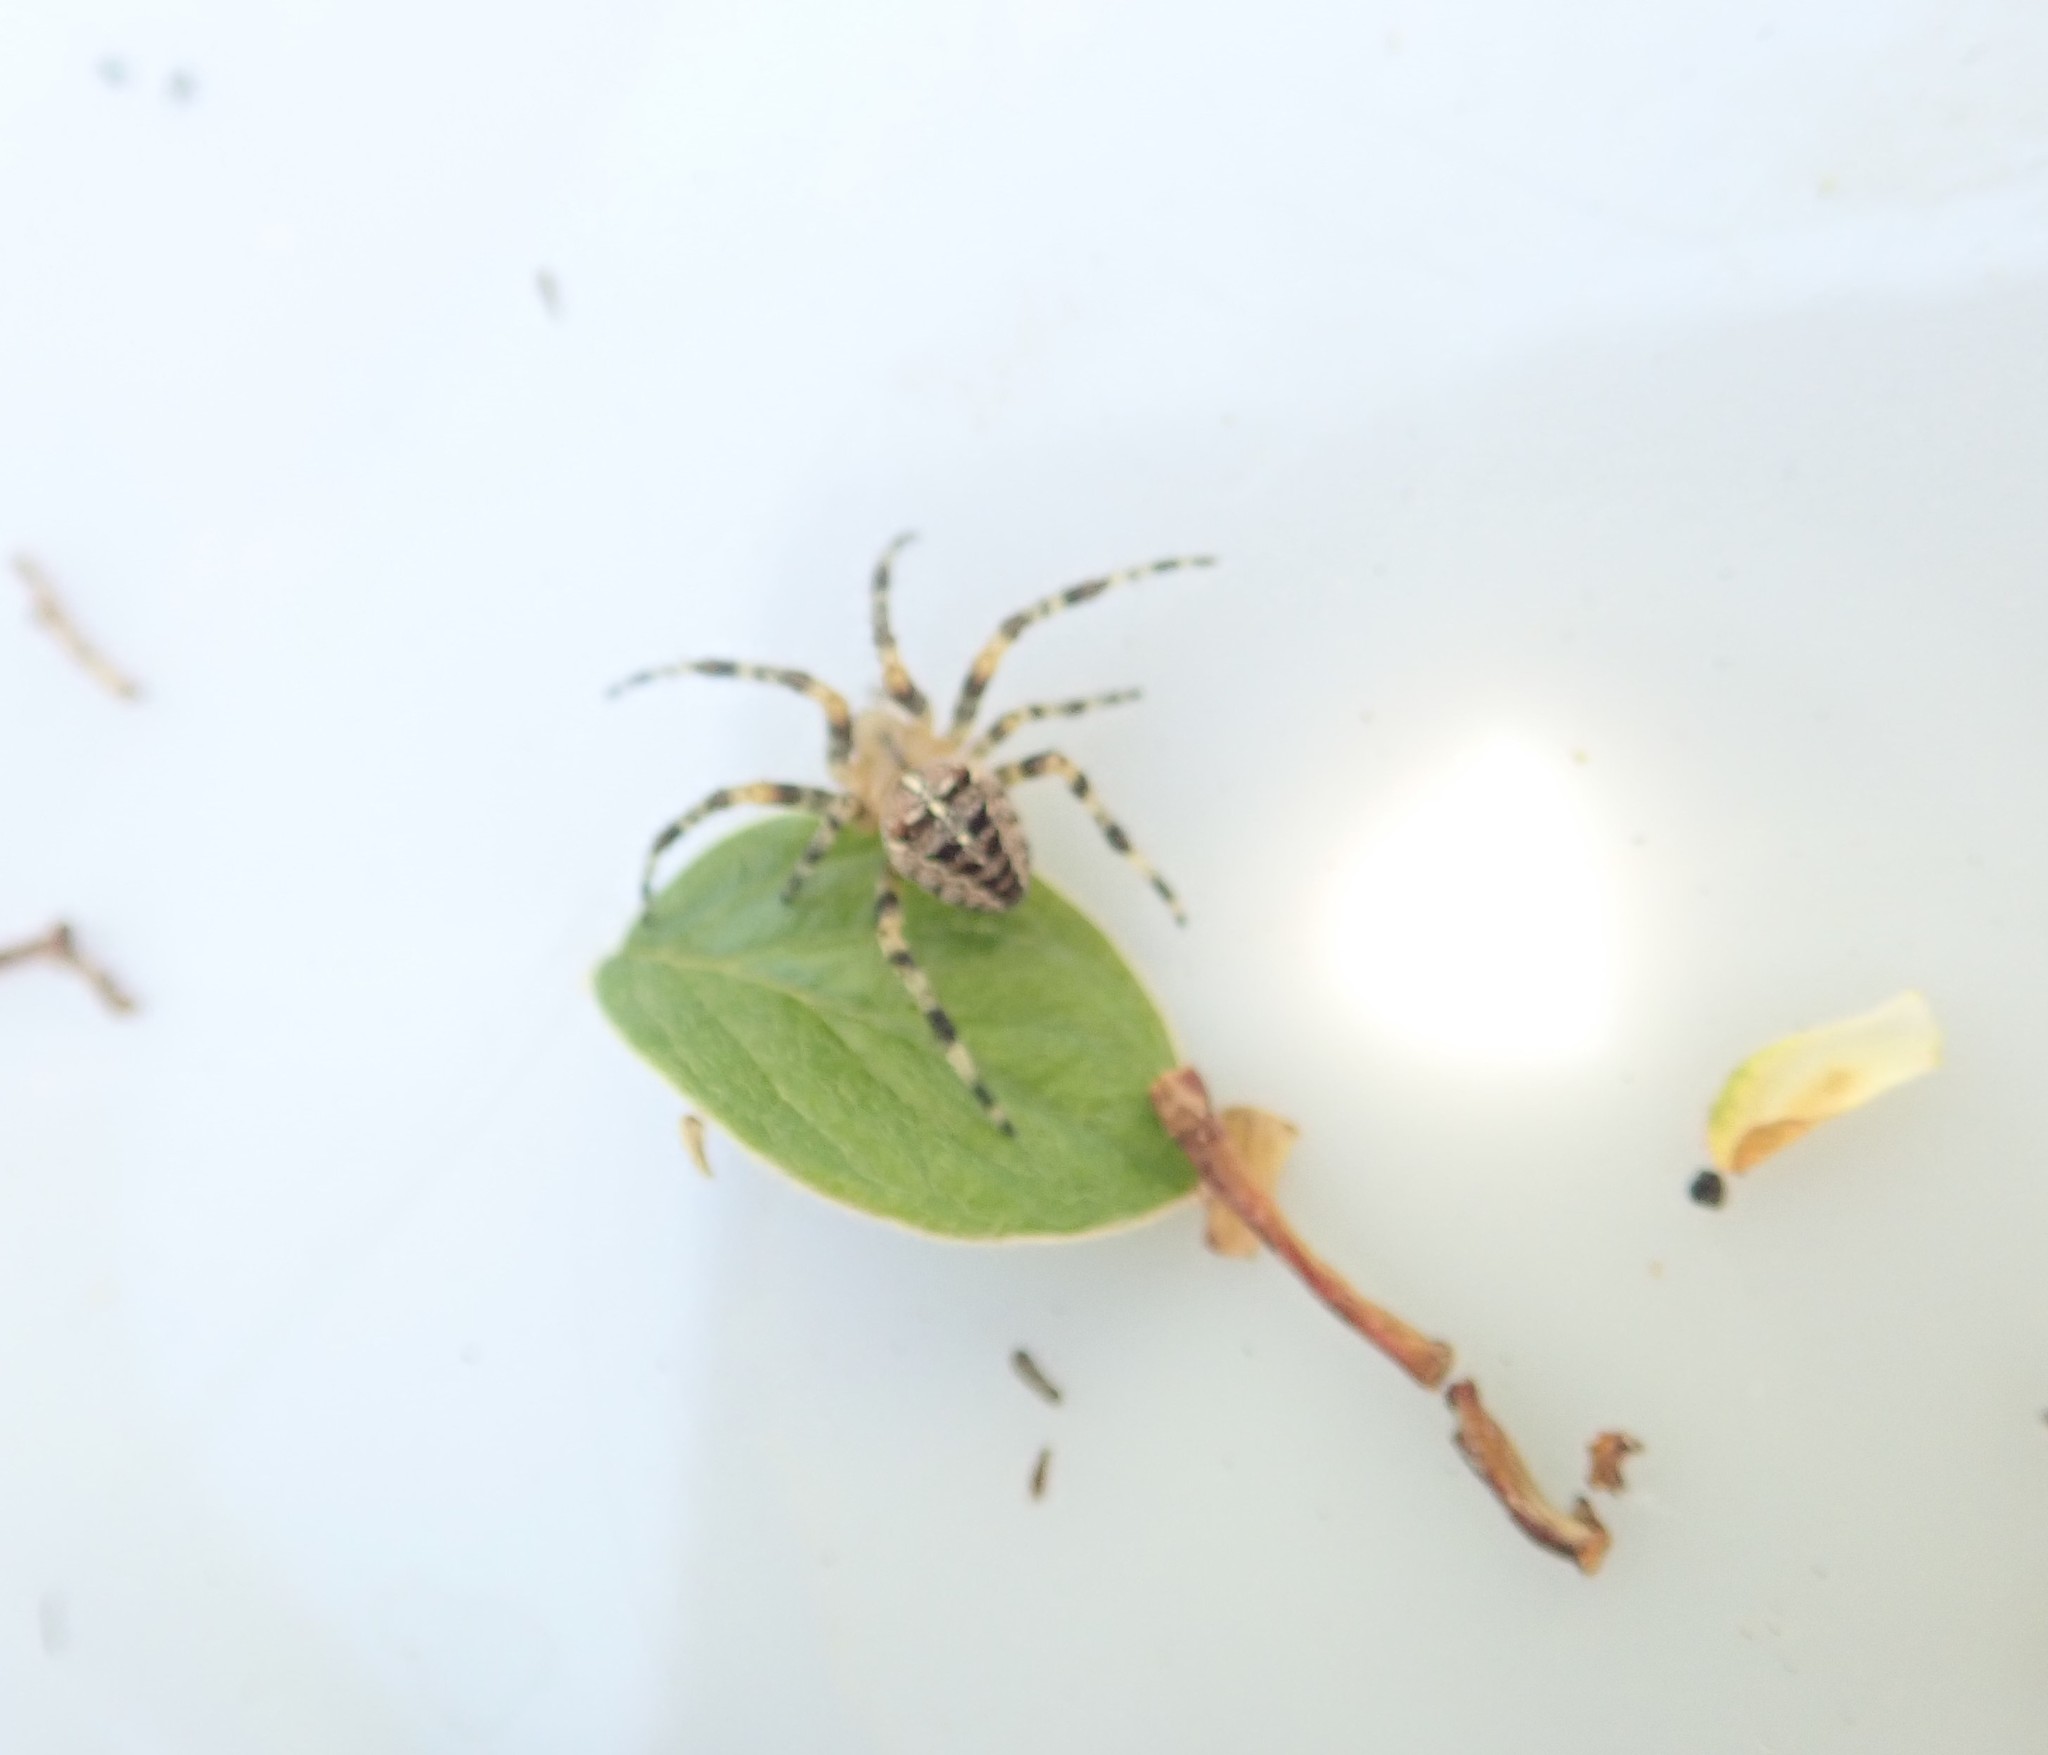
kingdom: Animalia
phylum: Arthropoda
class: Arachnida
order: Araneae
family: Araneidae
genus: Araneus
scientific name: Araneus diadematus
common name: Cross orbweaver
